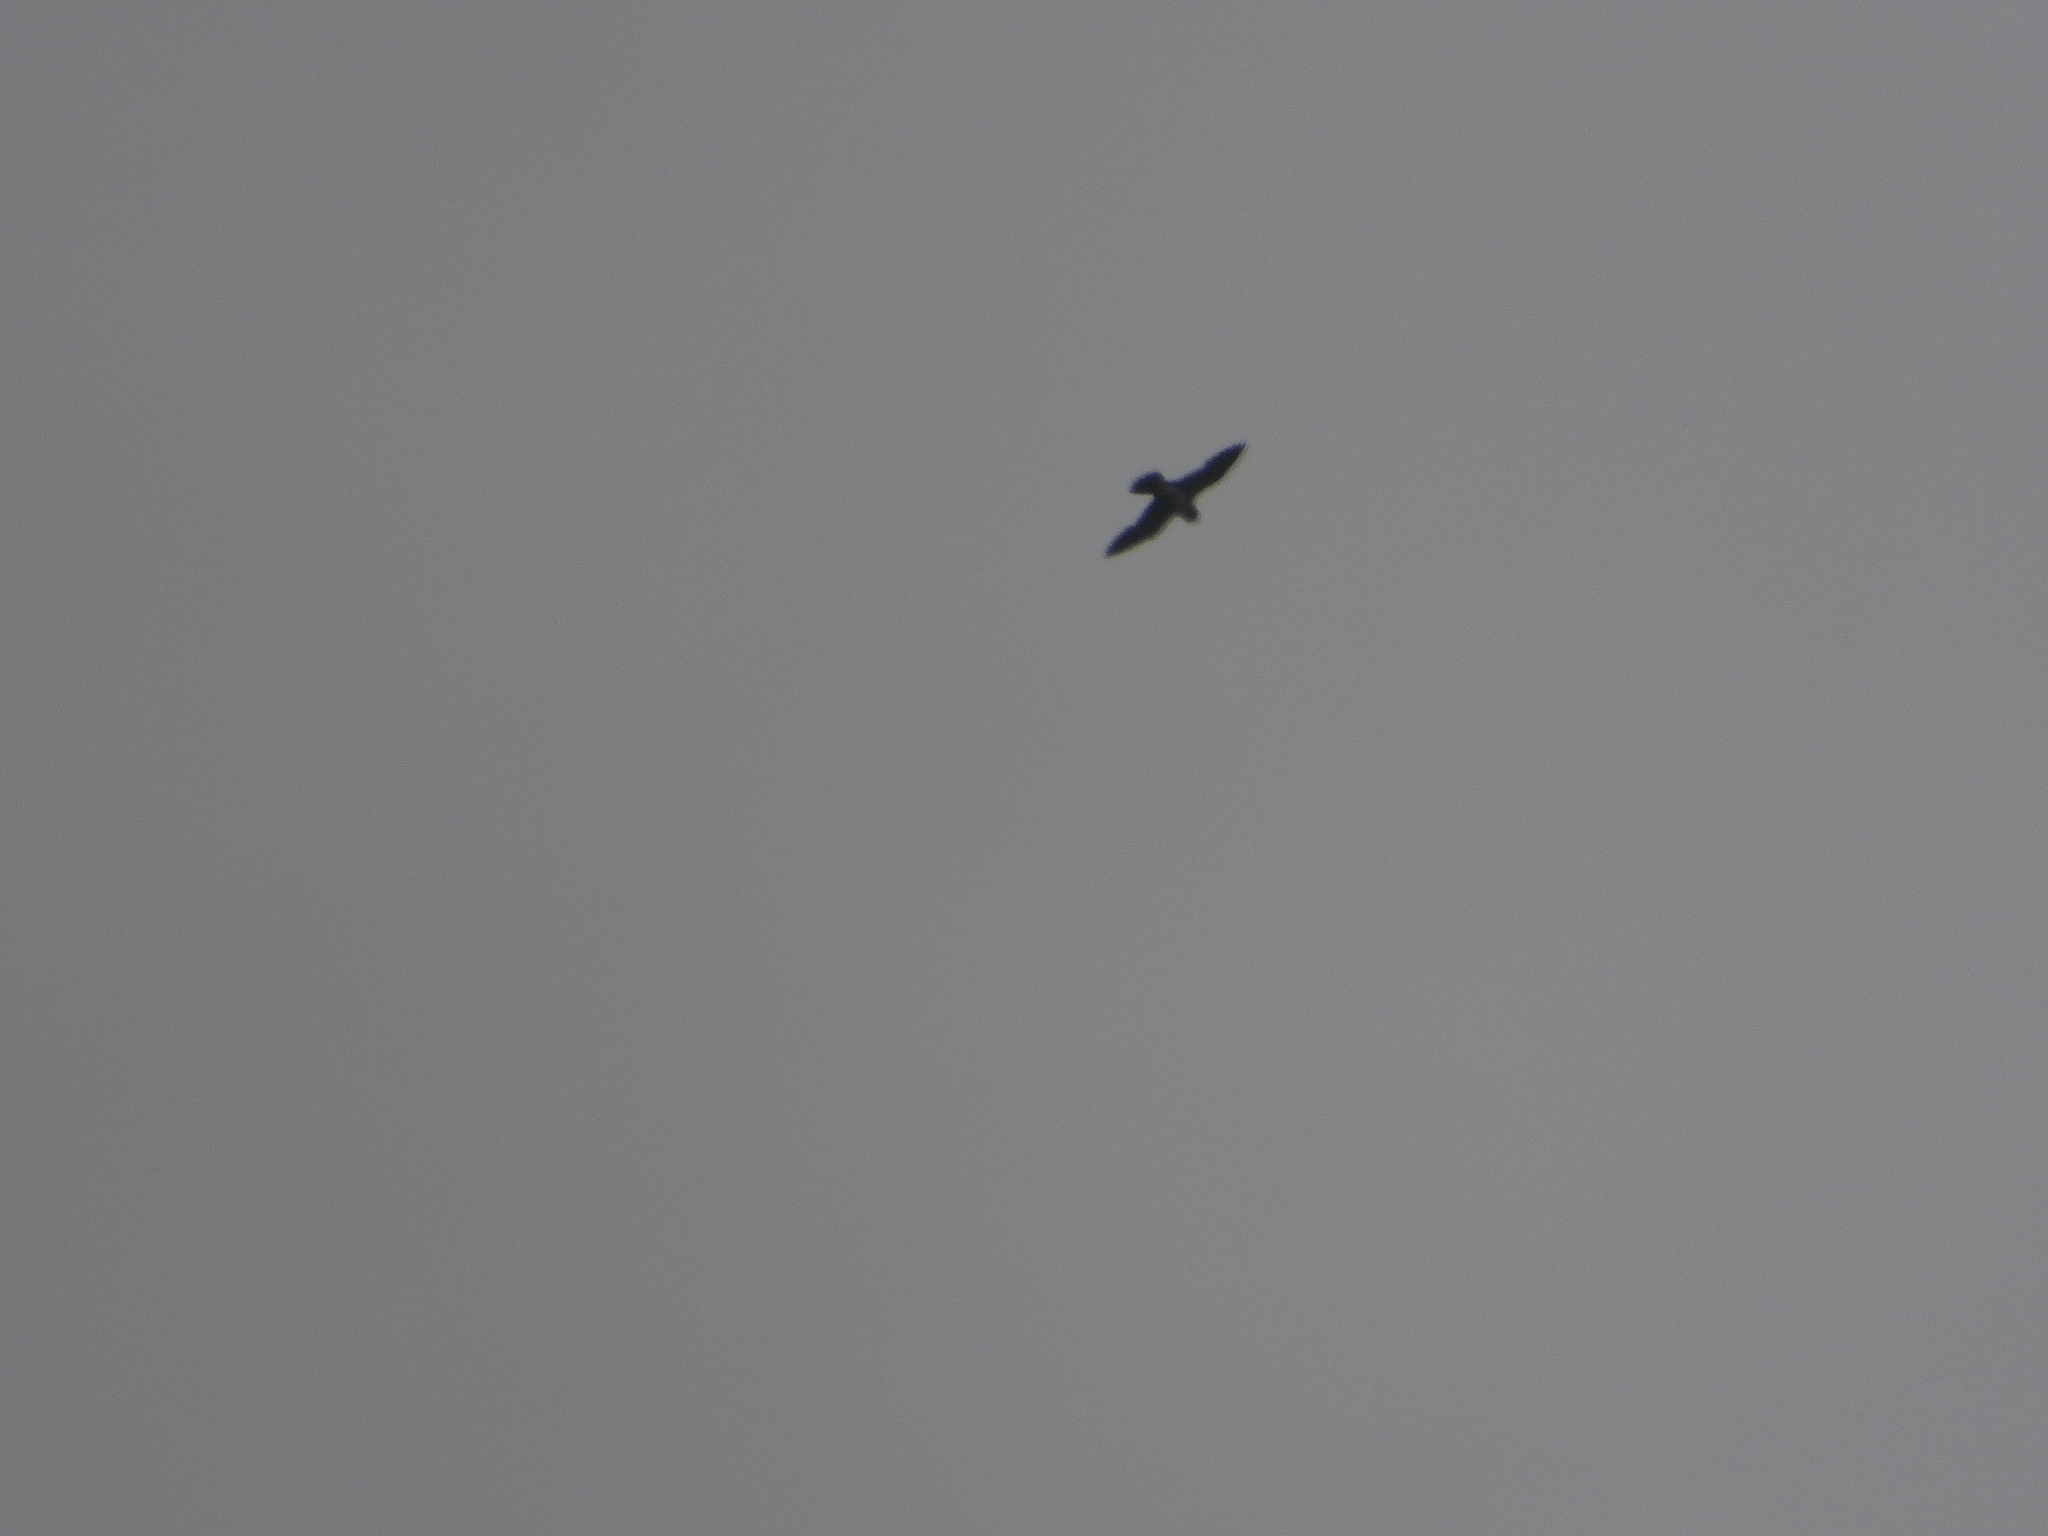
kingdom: Animalia
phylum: Chordata
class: Aves
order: Falconiformes
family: Falconidae
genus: Falco
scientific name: Falco peregrinus
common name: Peregrine falcon
